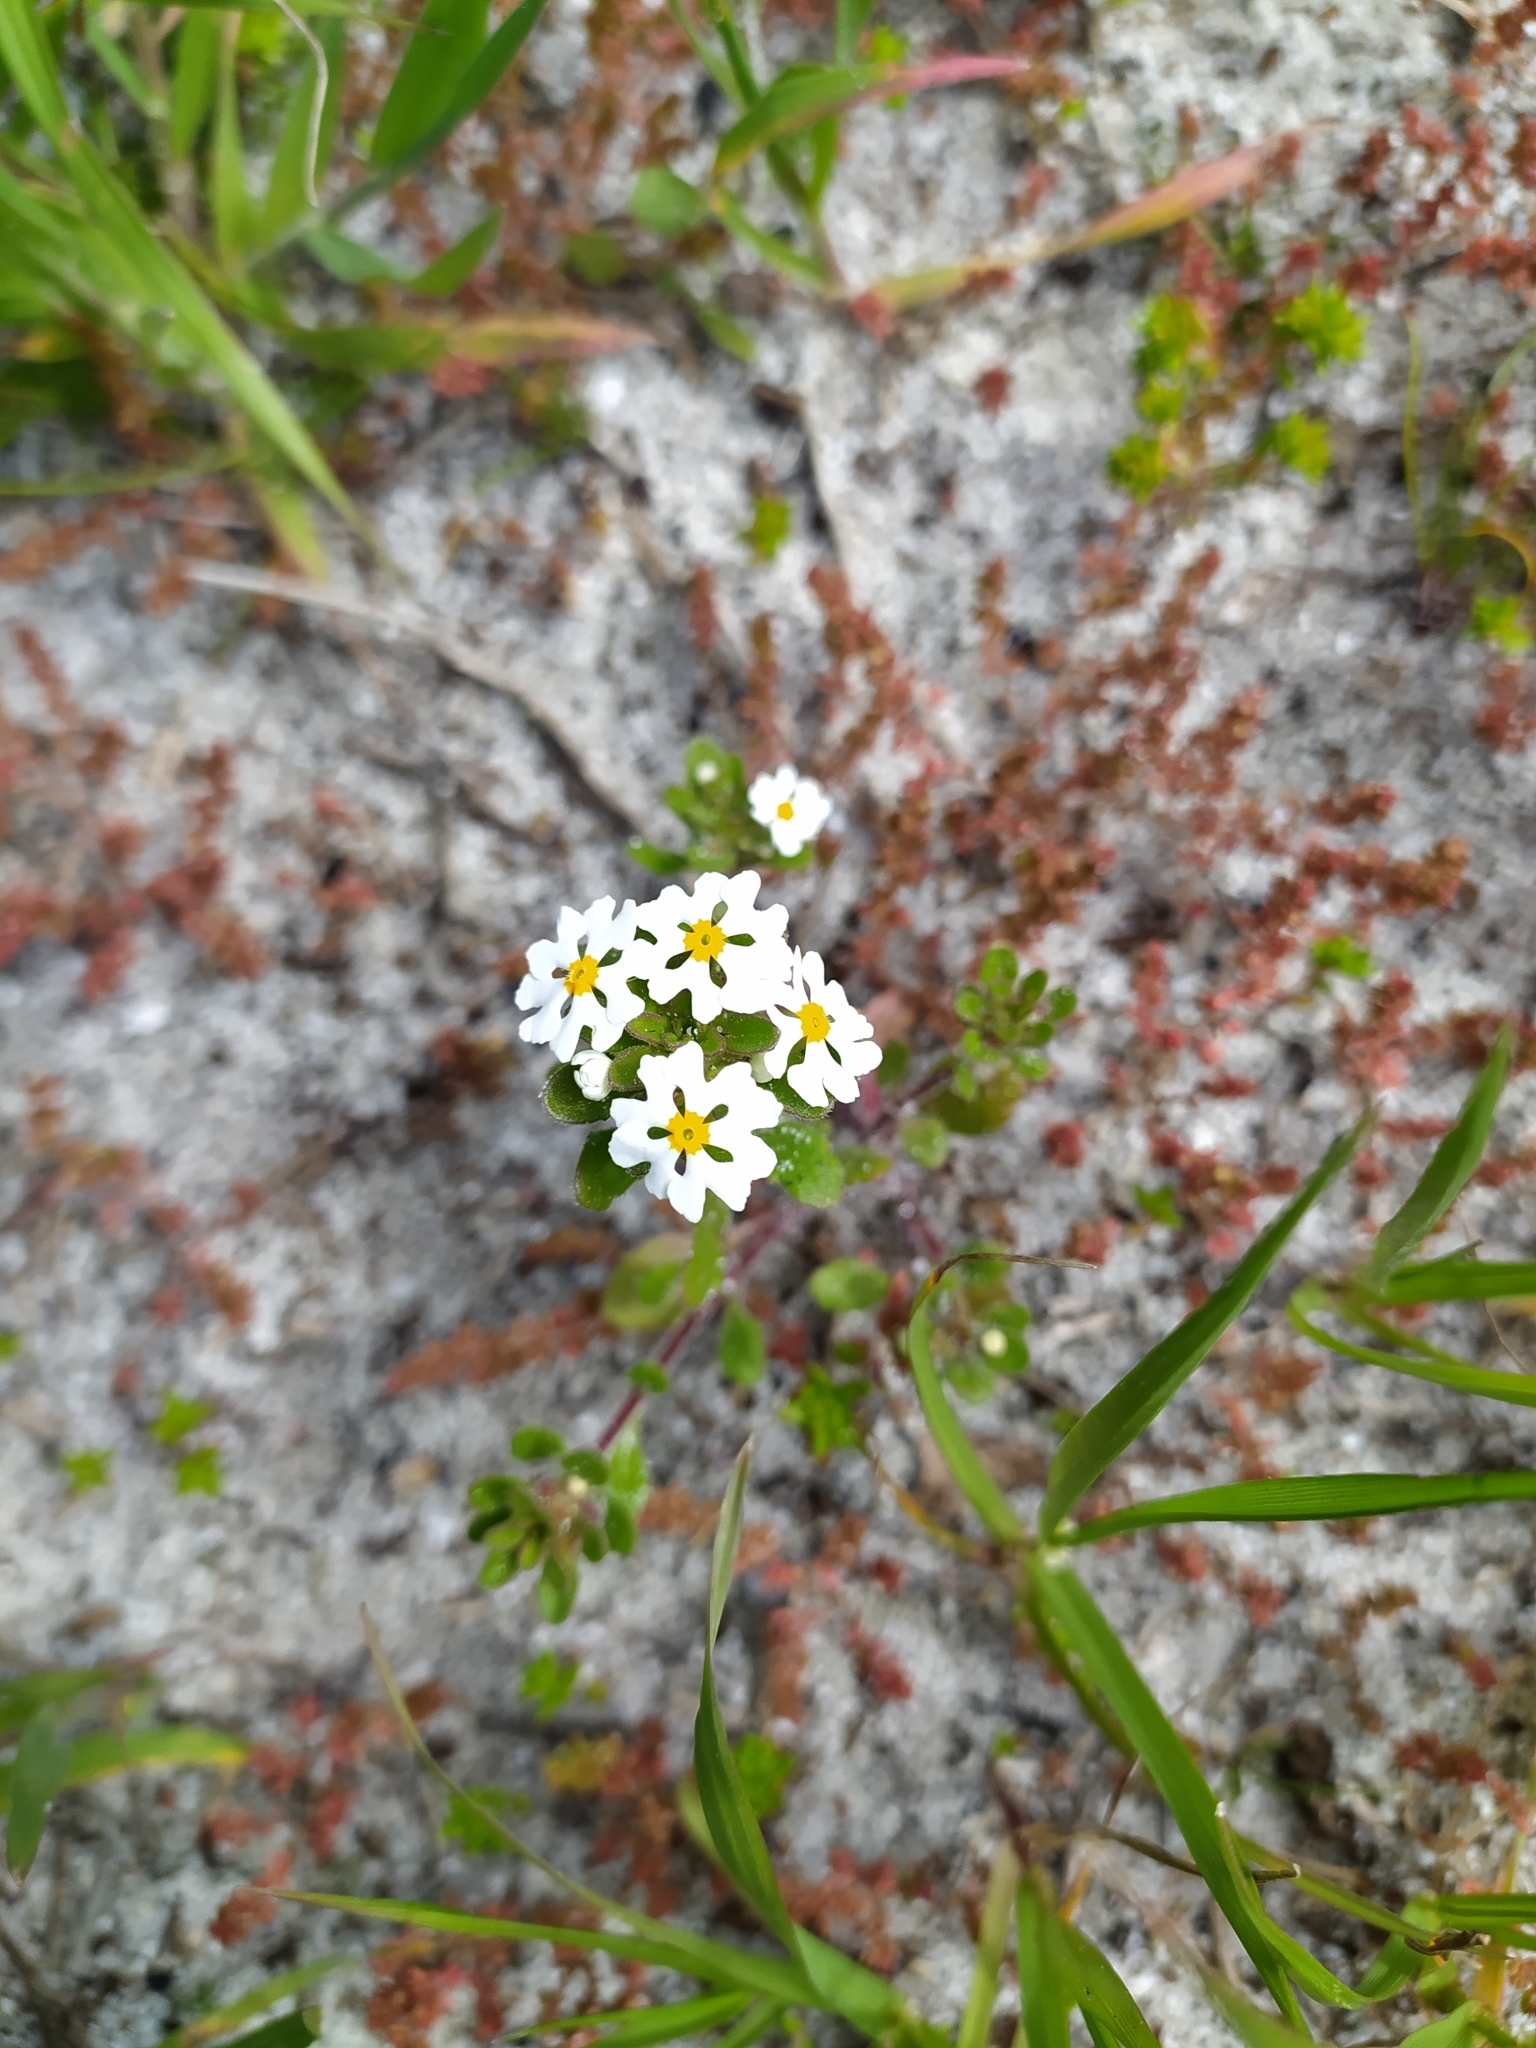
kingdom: Plantae
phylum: Tracheophyta
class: Magnoliopsida
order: Lamiales
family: Scrophulariaceae
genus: Zaluzianskya
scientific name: Zaluzianskya villosa
